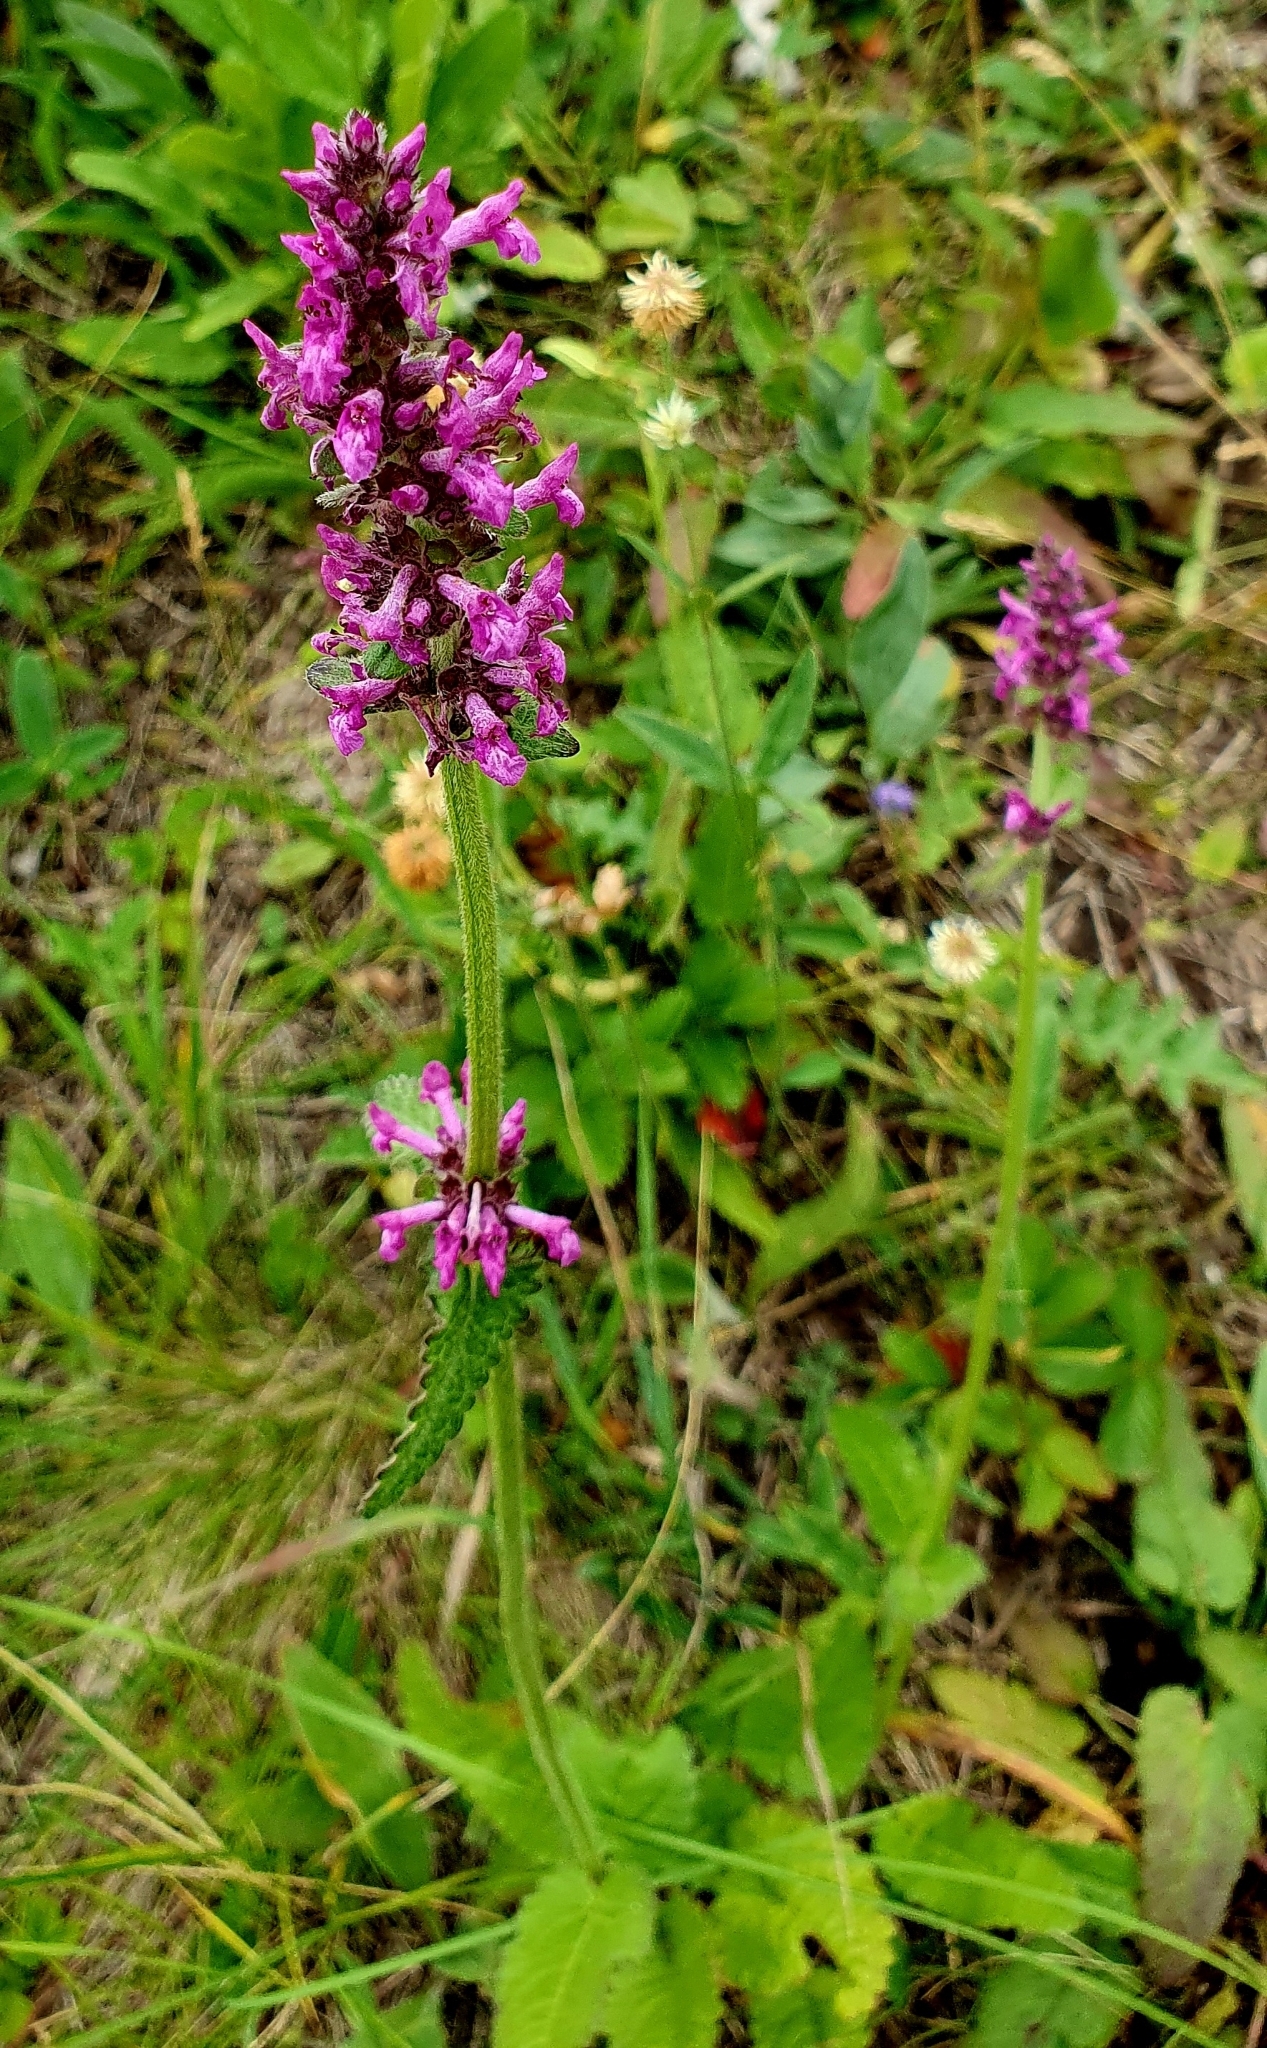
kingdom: Plantae
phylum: Tracheophyta
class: Magnoliopsida
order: Lamiales
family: Lamiaceae
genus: Betonica
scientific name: Betonica officinalis
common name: Bishop's-wort
